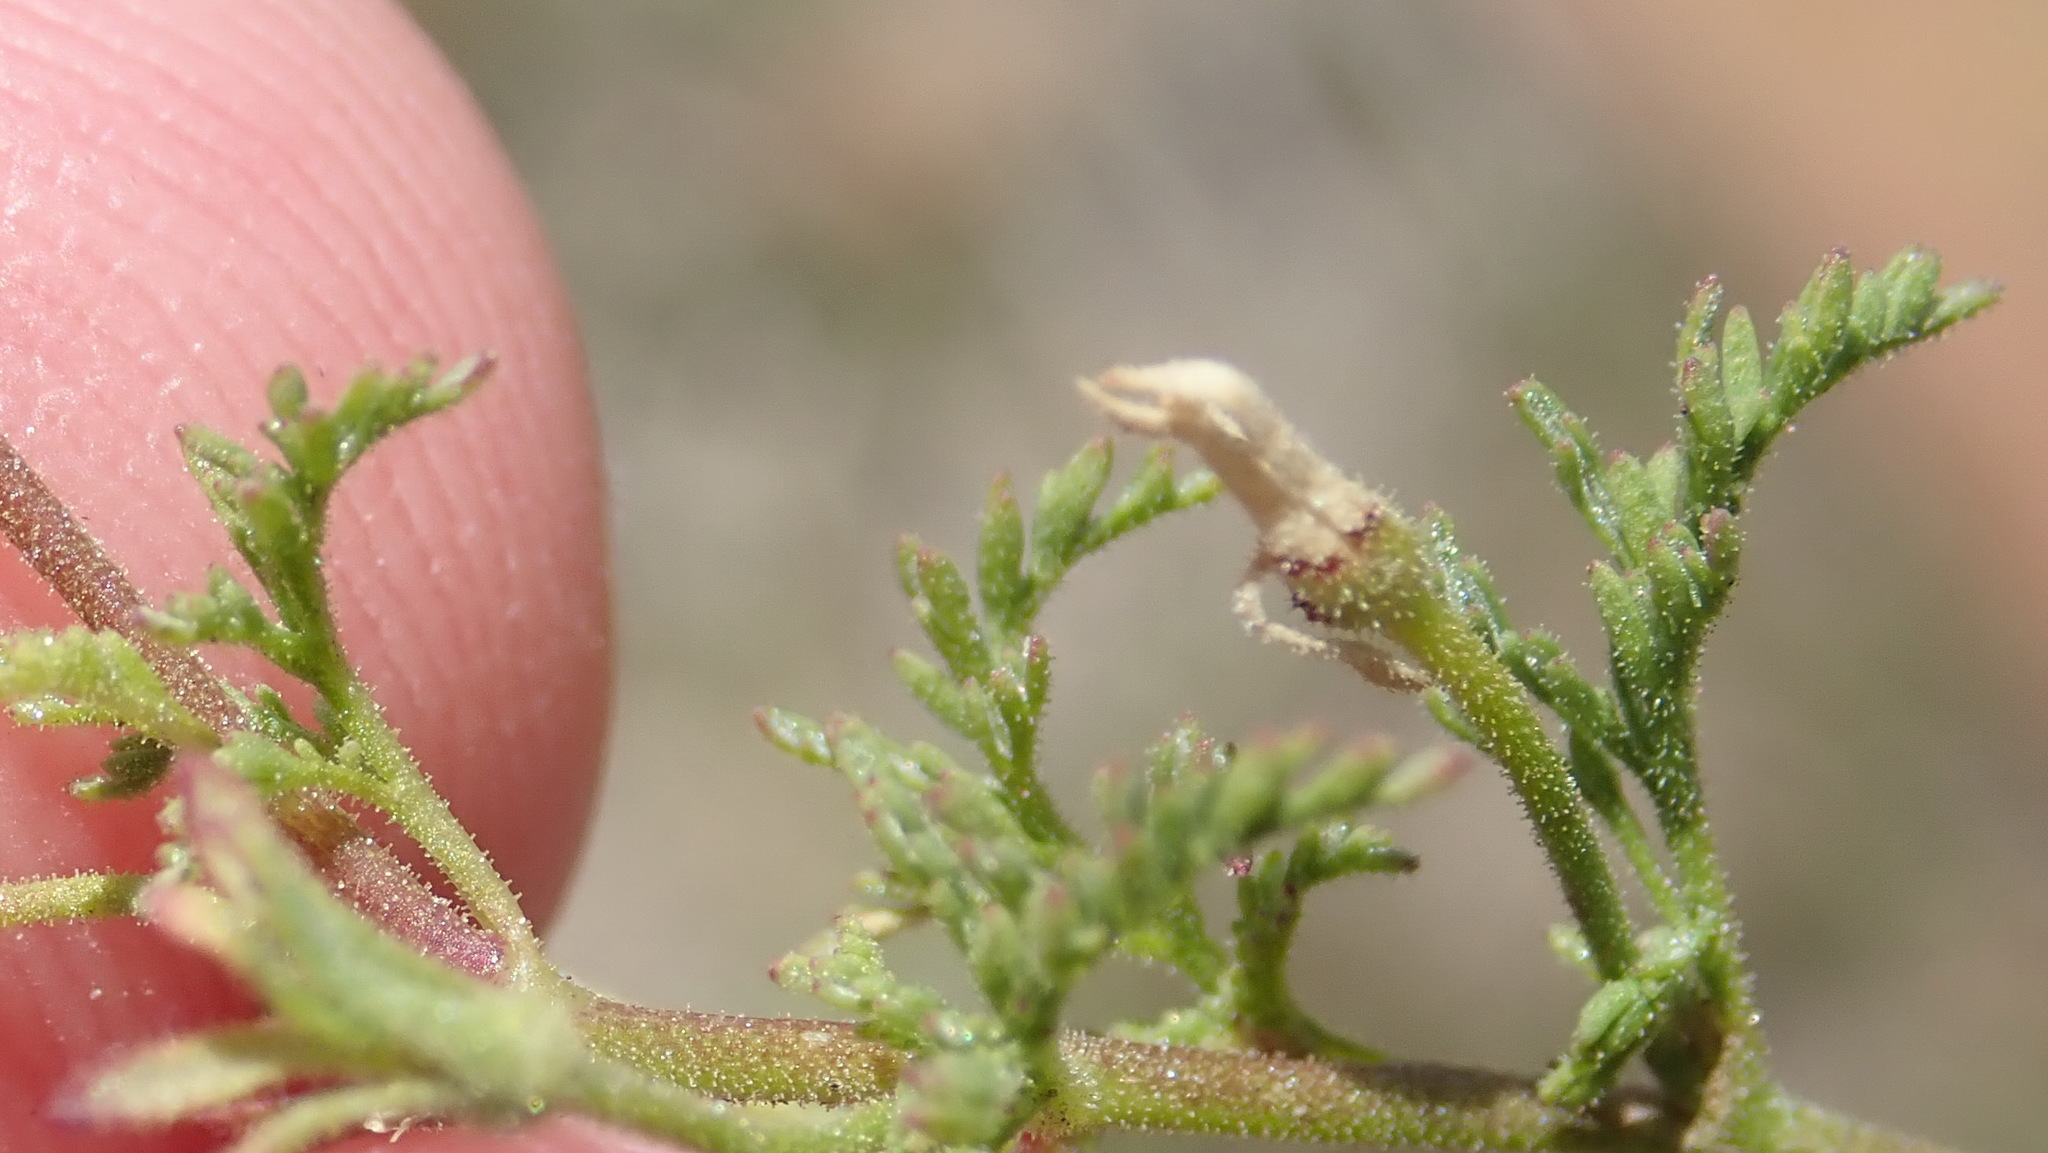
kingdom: Plantae
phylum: Tracheophyta
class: Magnoliopsida
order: Lamiales
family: Scrophulariaceae
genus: Jamesbrittenia
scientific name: Jamesbrittenia aurantiaca
